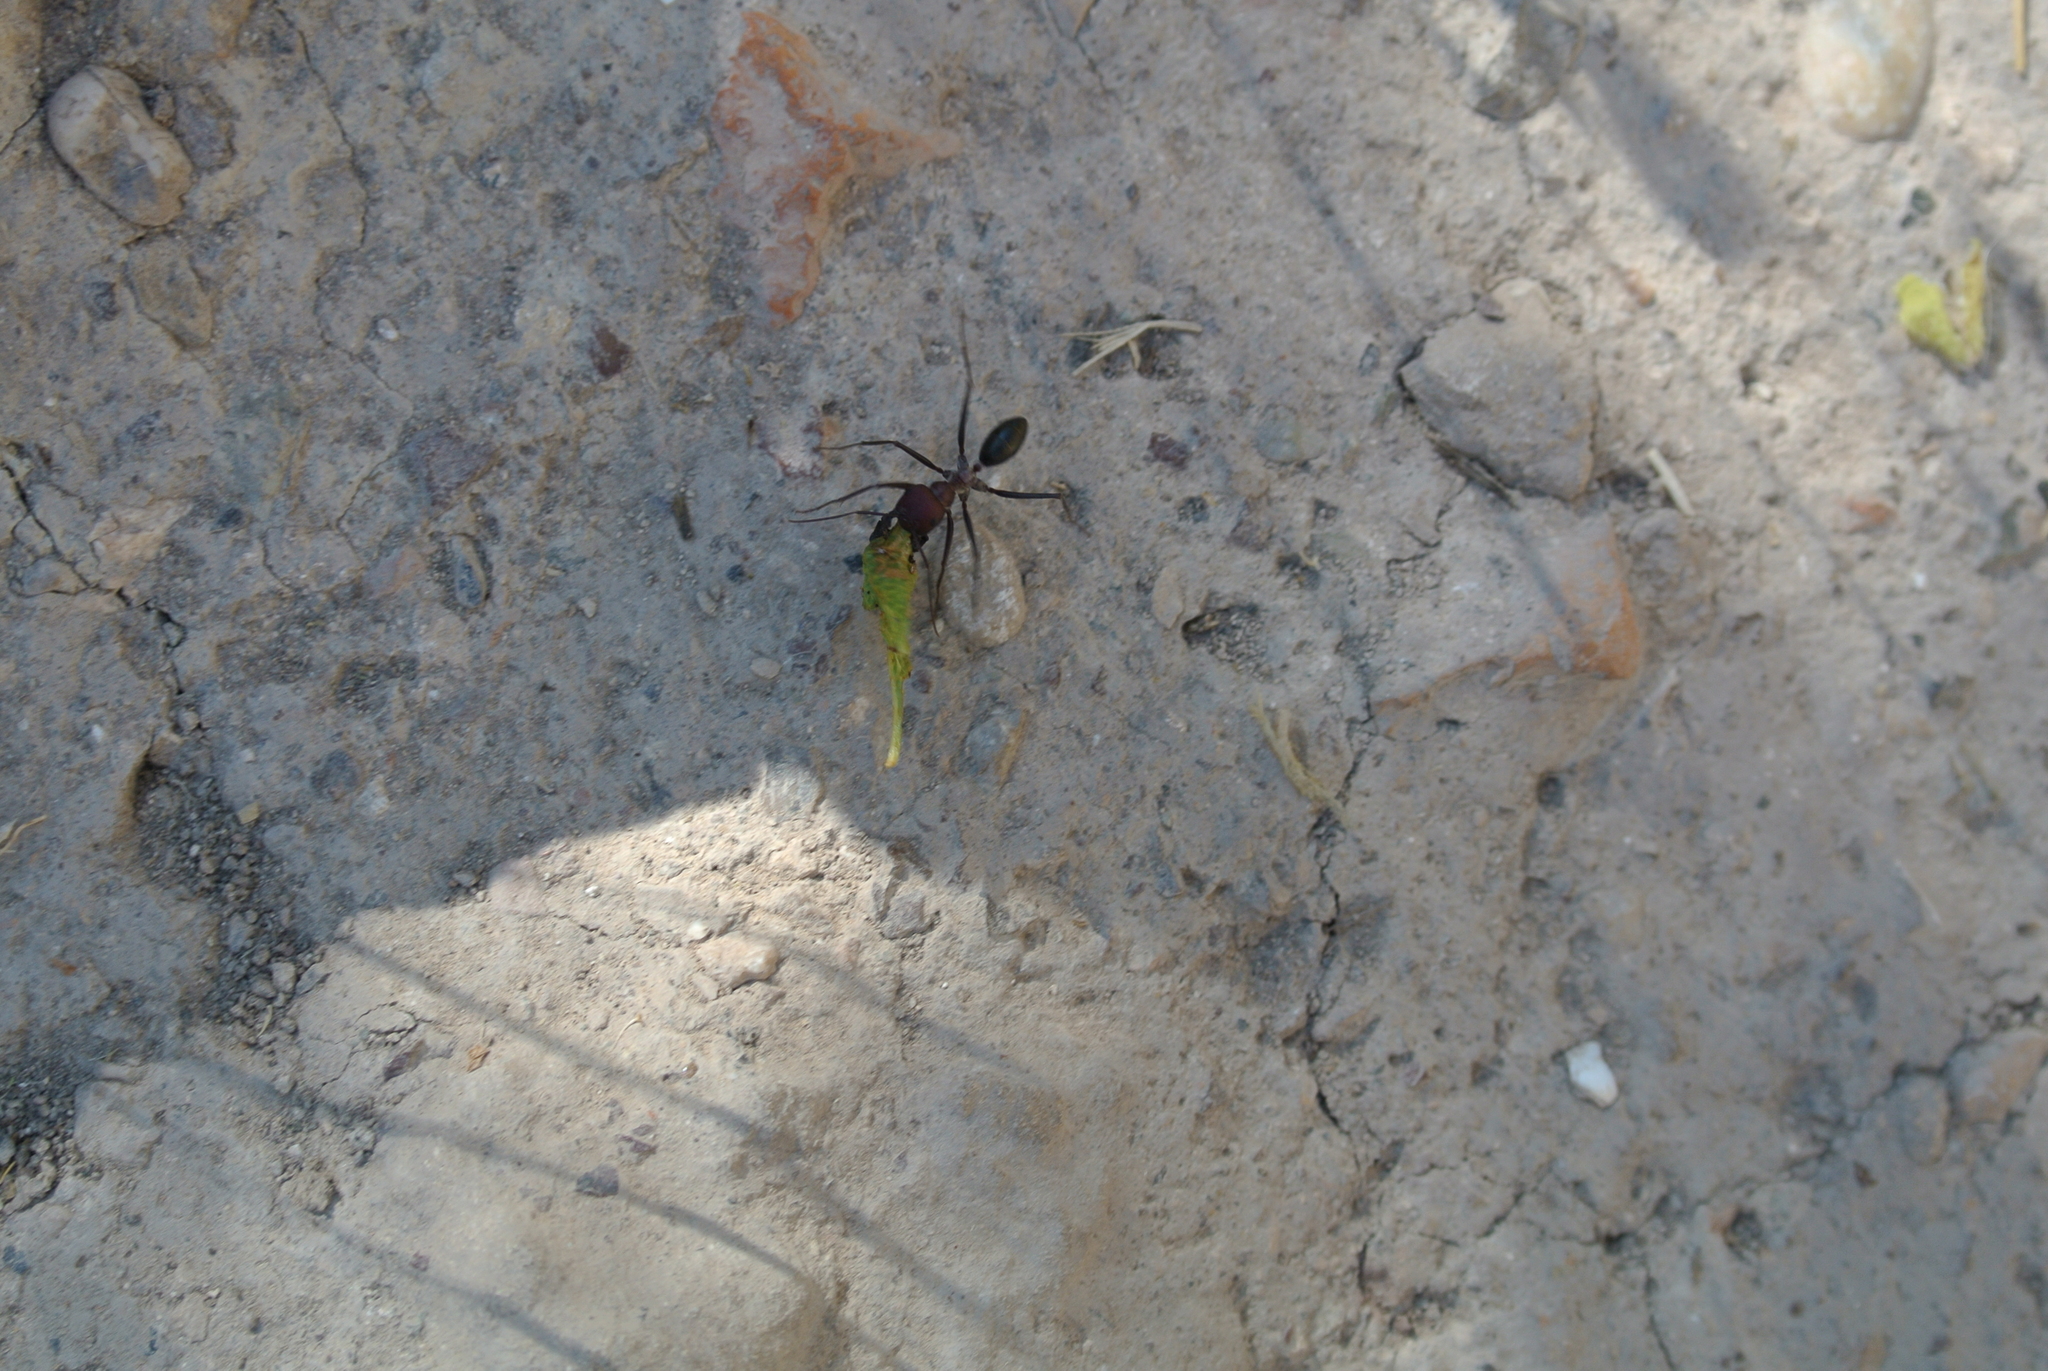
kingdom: Animalia
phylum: Arthropoda
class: Insecta
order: Hymenoptera
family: Formicidae
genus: Cataglyphis
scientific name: Cataglyphis nodus
